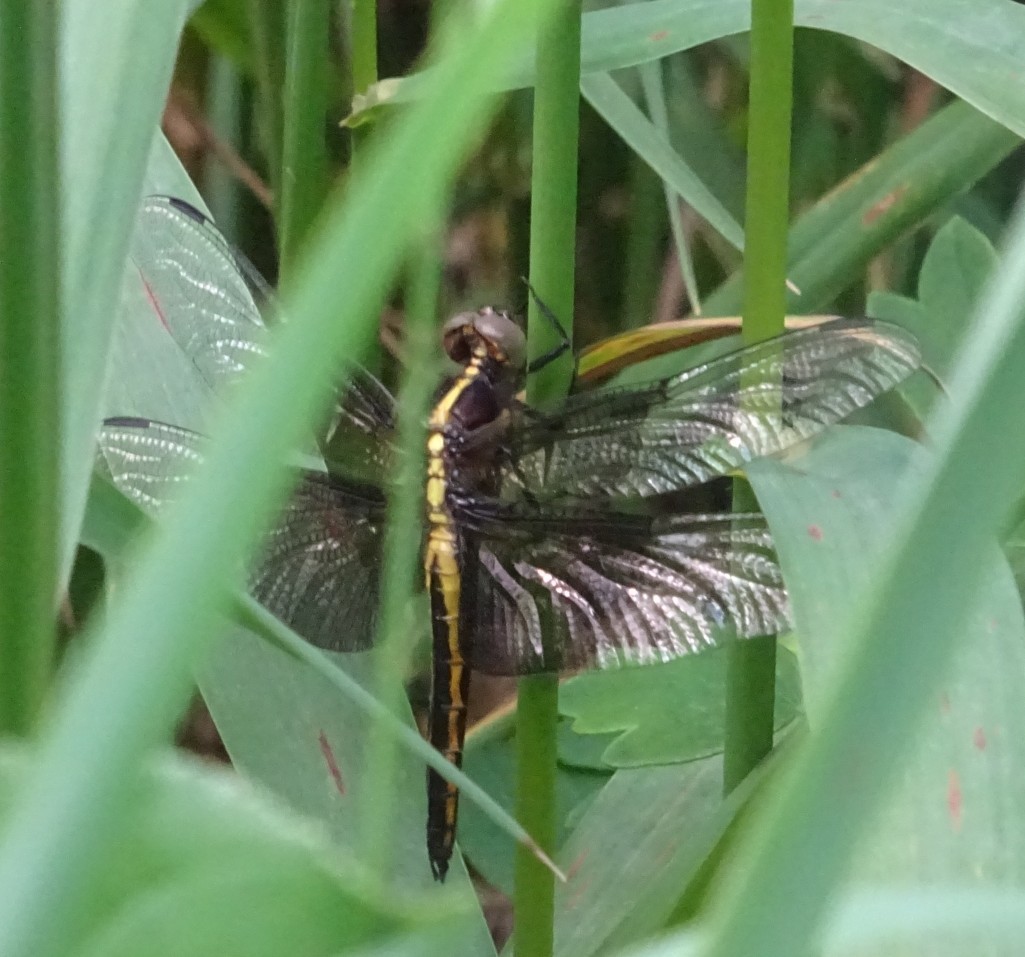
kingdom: Animalia
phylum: Arthropoda
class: Insecta
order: Odonata
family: Libellulidae
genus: Libellula
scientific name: Libellula luctuosa
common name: Widow skimmer
